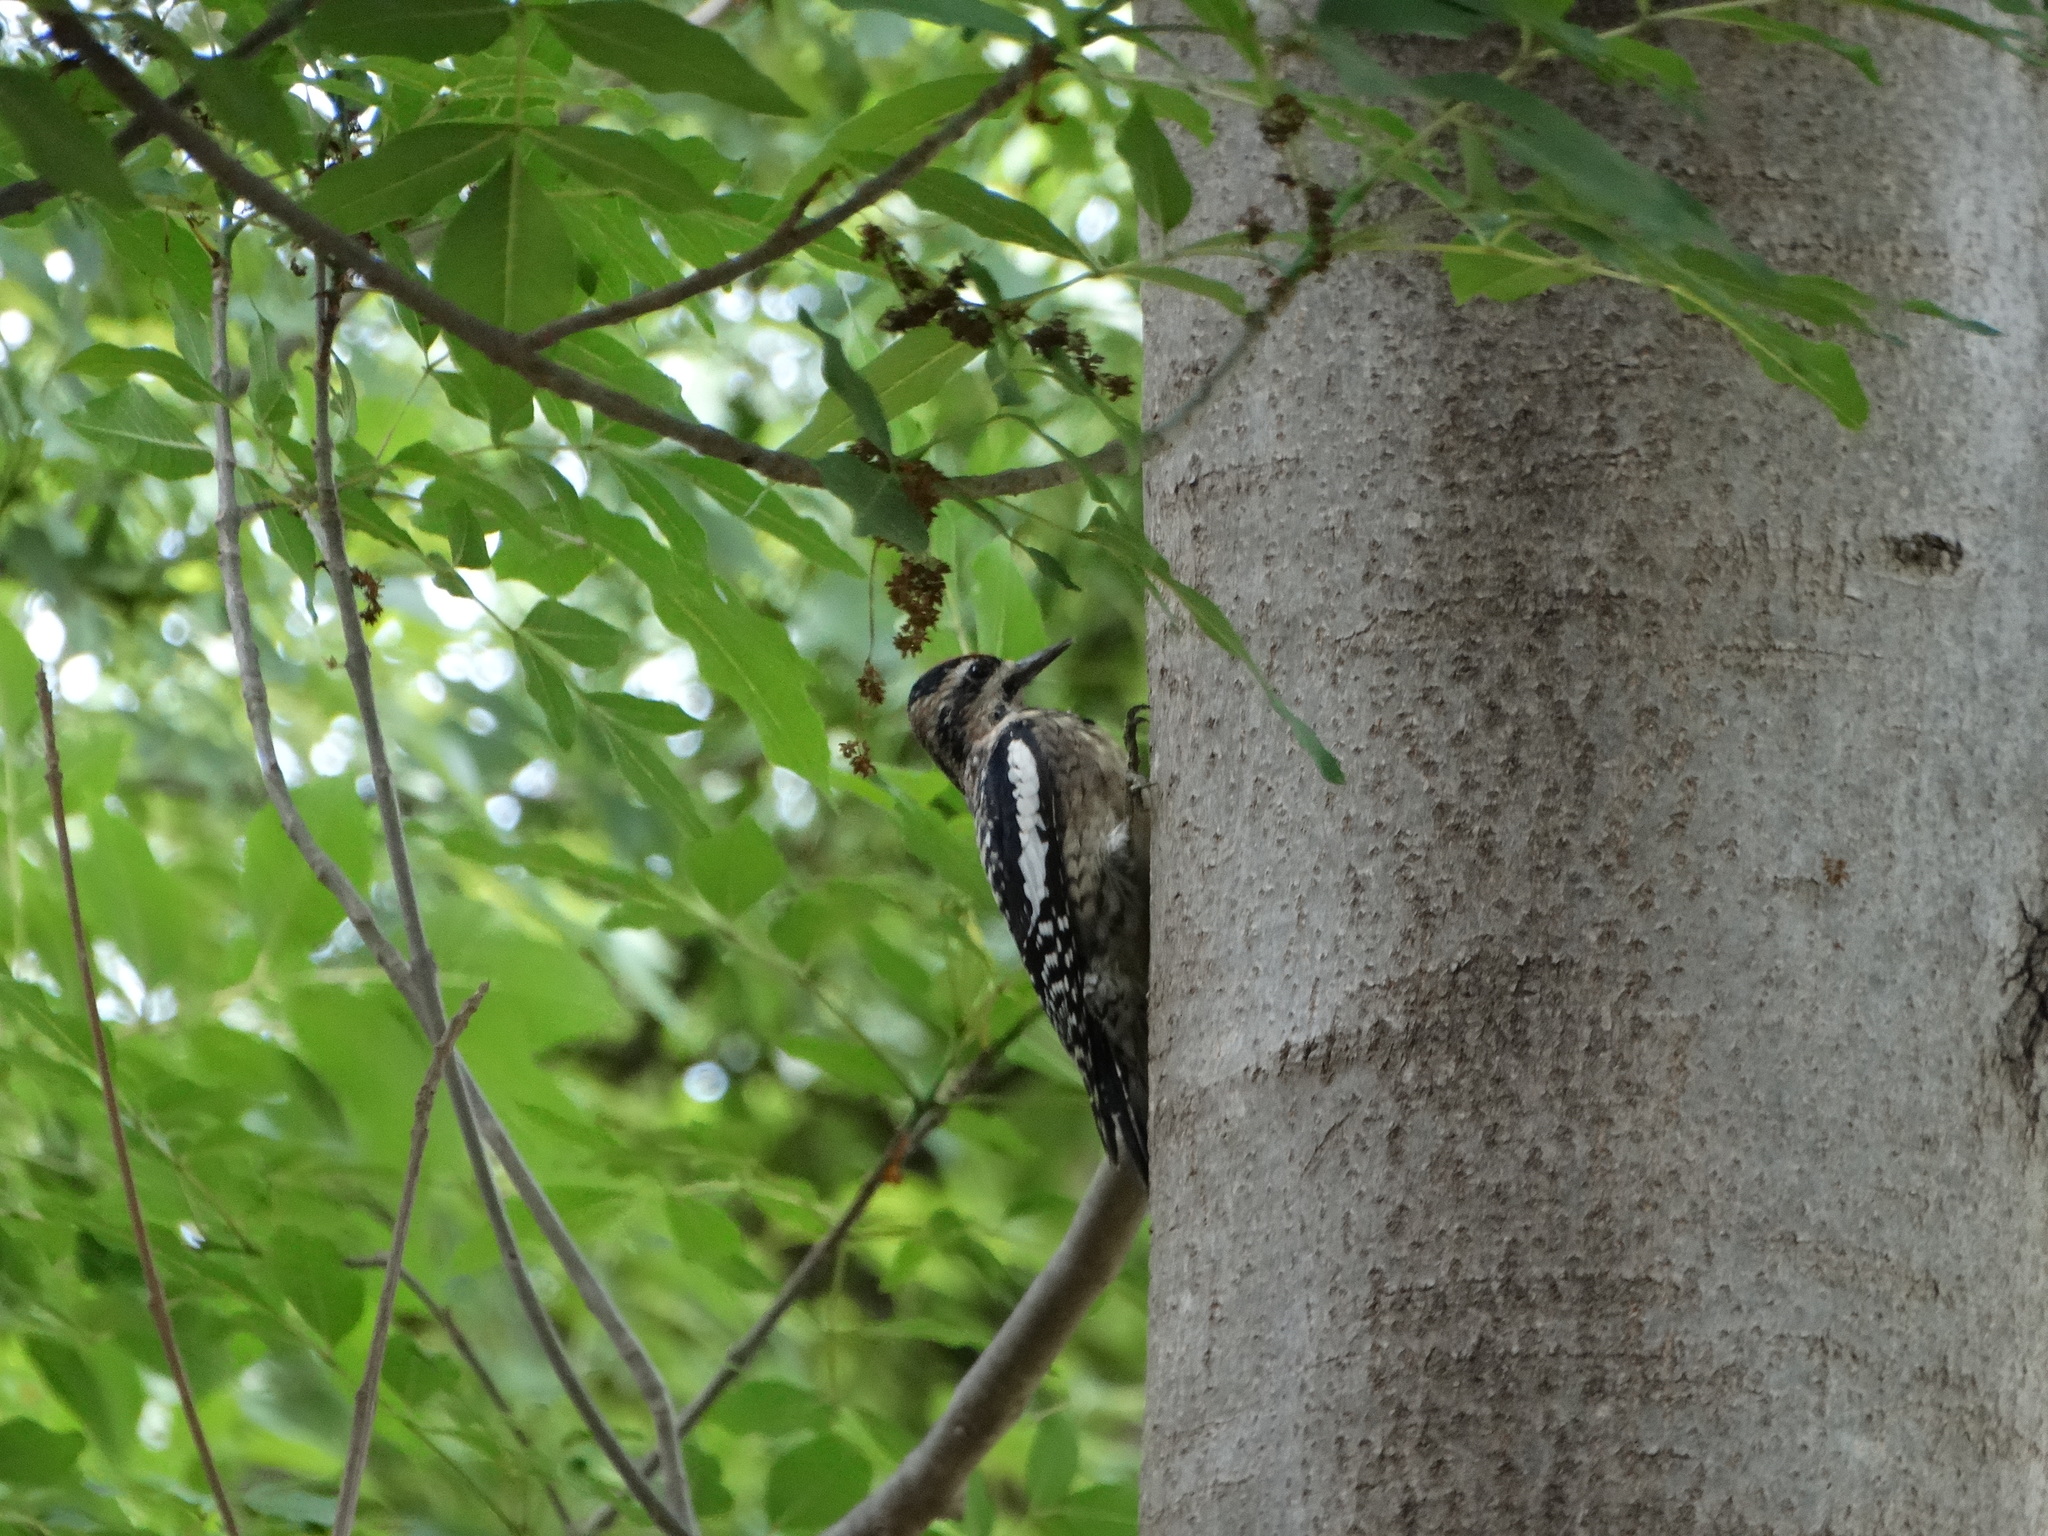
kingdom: Animalia
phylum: Chordata
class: Aves
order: Piciformes
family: Picidae
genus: Sphyrapicus
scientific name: Sphyrapicus varius
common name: Yellow-bellied sapsucker
